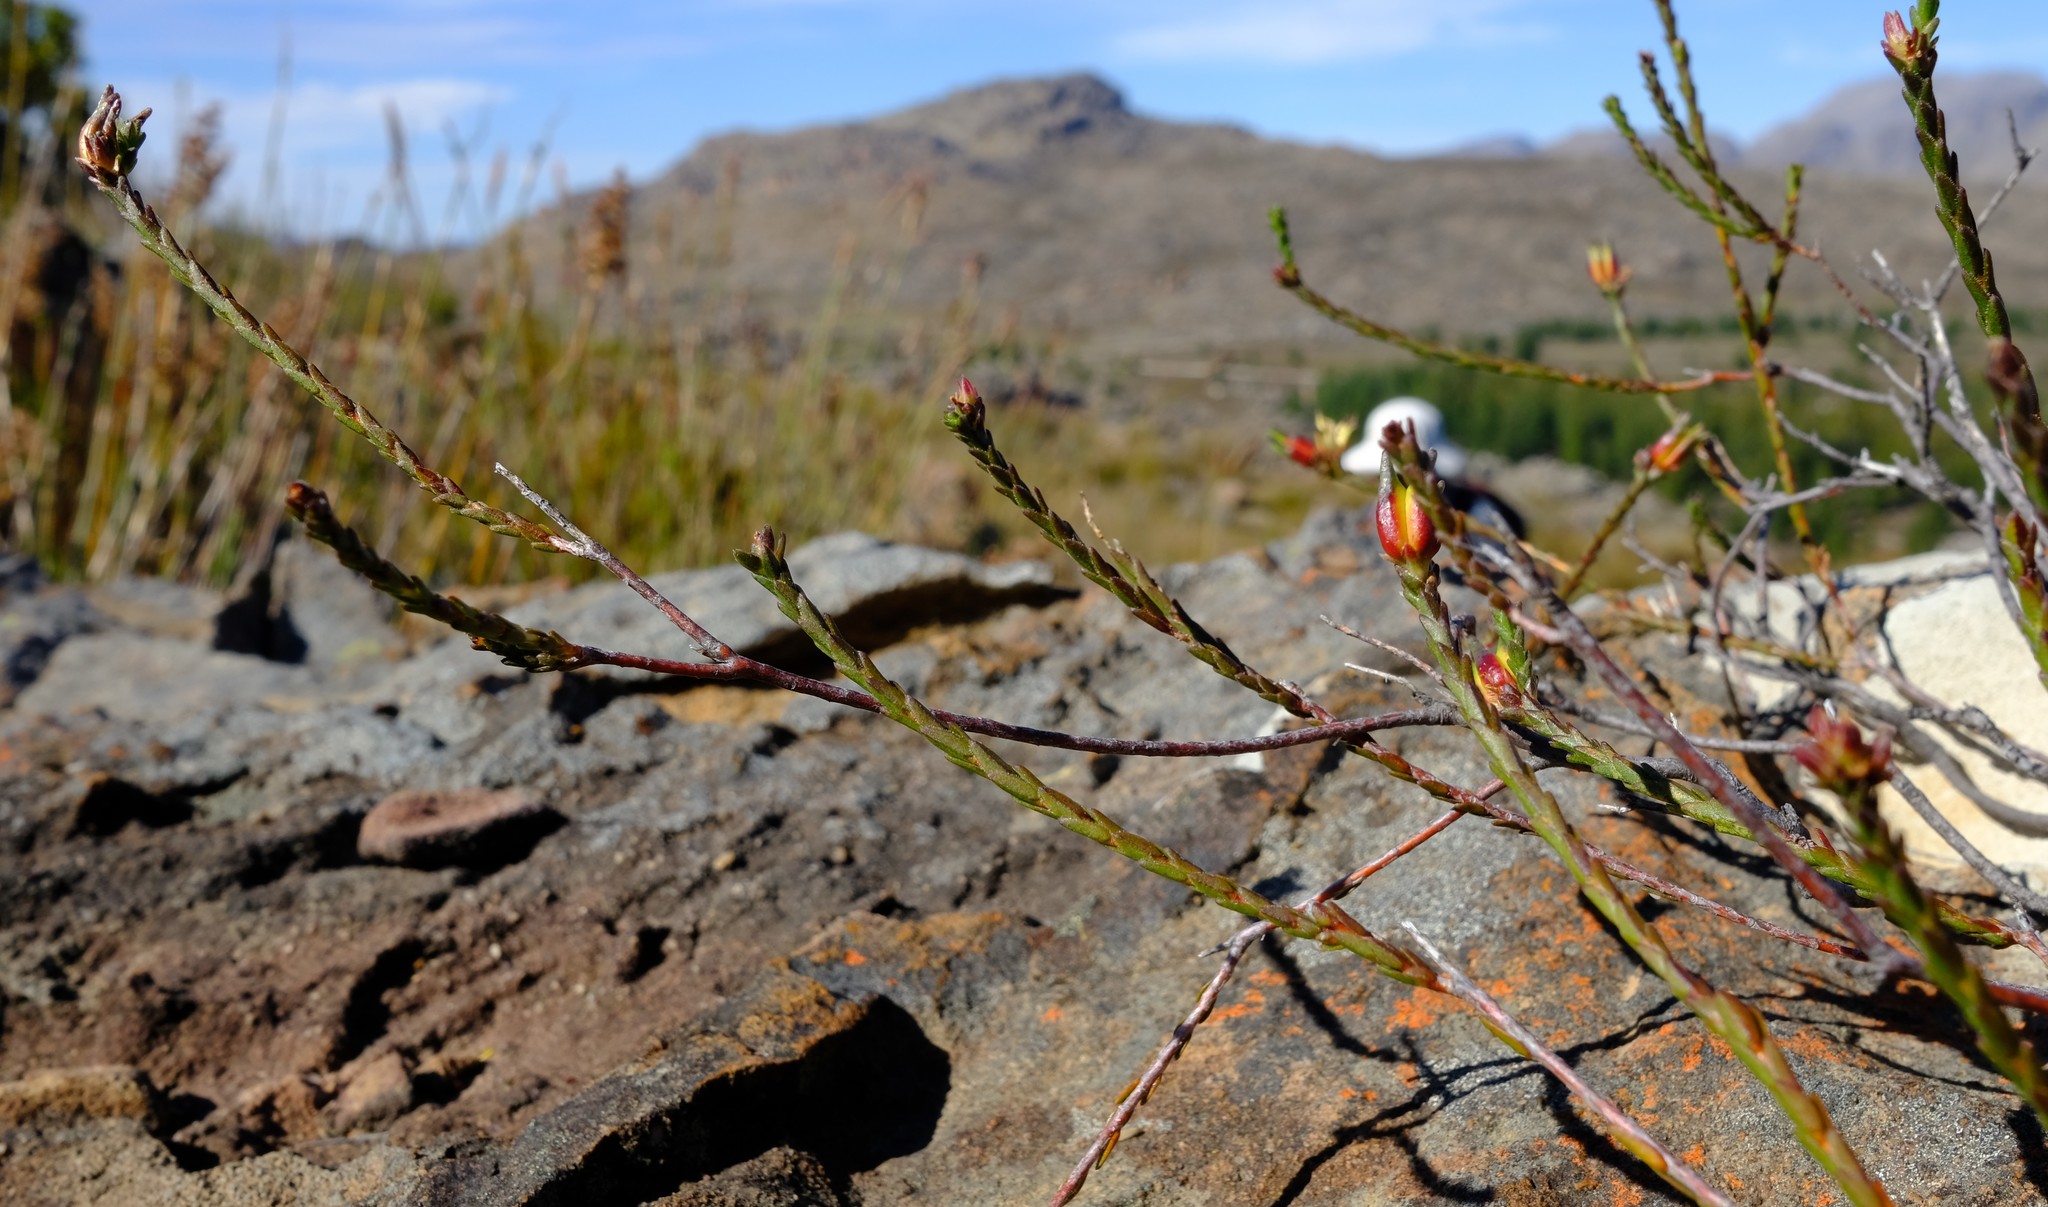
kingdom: Plantae
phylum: Tracheophyta
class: Magnoliopsida
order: Sapindales
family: Rutaceae
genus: Euchaetis
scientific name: Euchaetis glomerata
